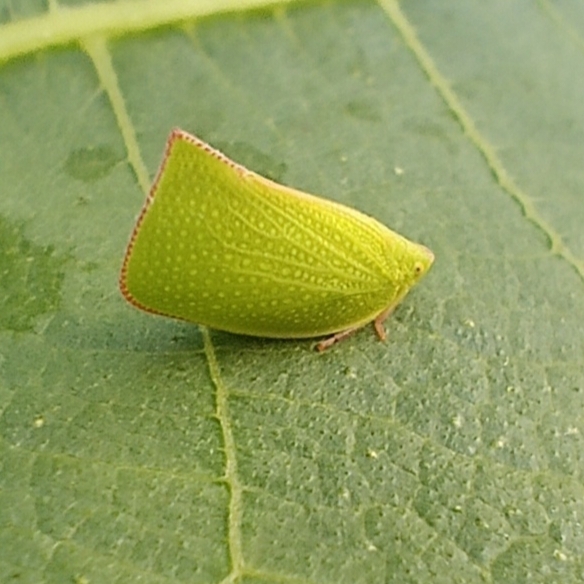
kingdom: Animalia
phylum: Arthropoda
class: Insecta
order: Hemiptera
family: Flatidae
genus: Siphanta
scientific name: Siphanta acuta
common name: Torpedo bug
